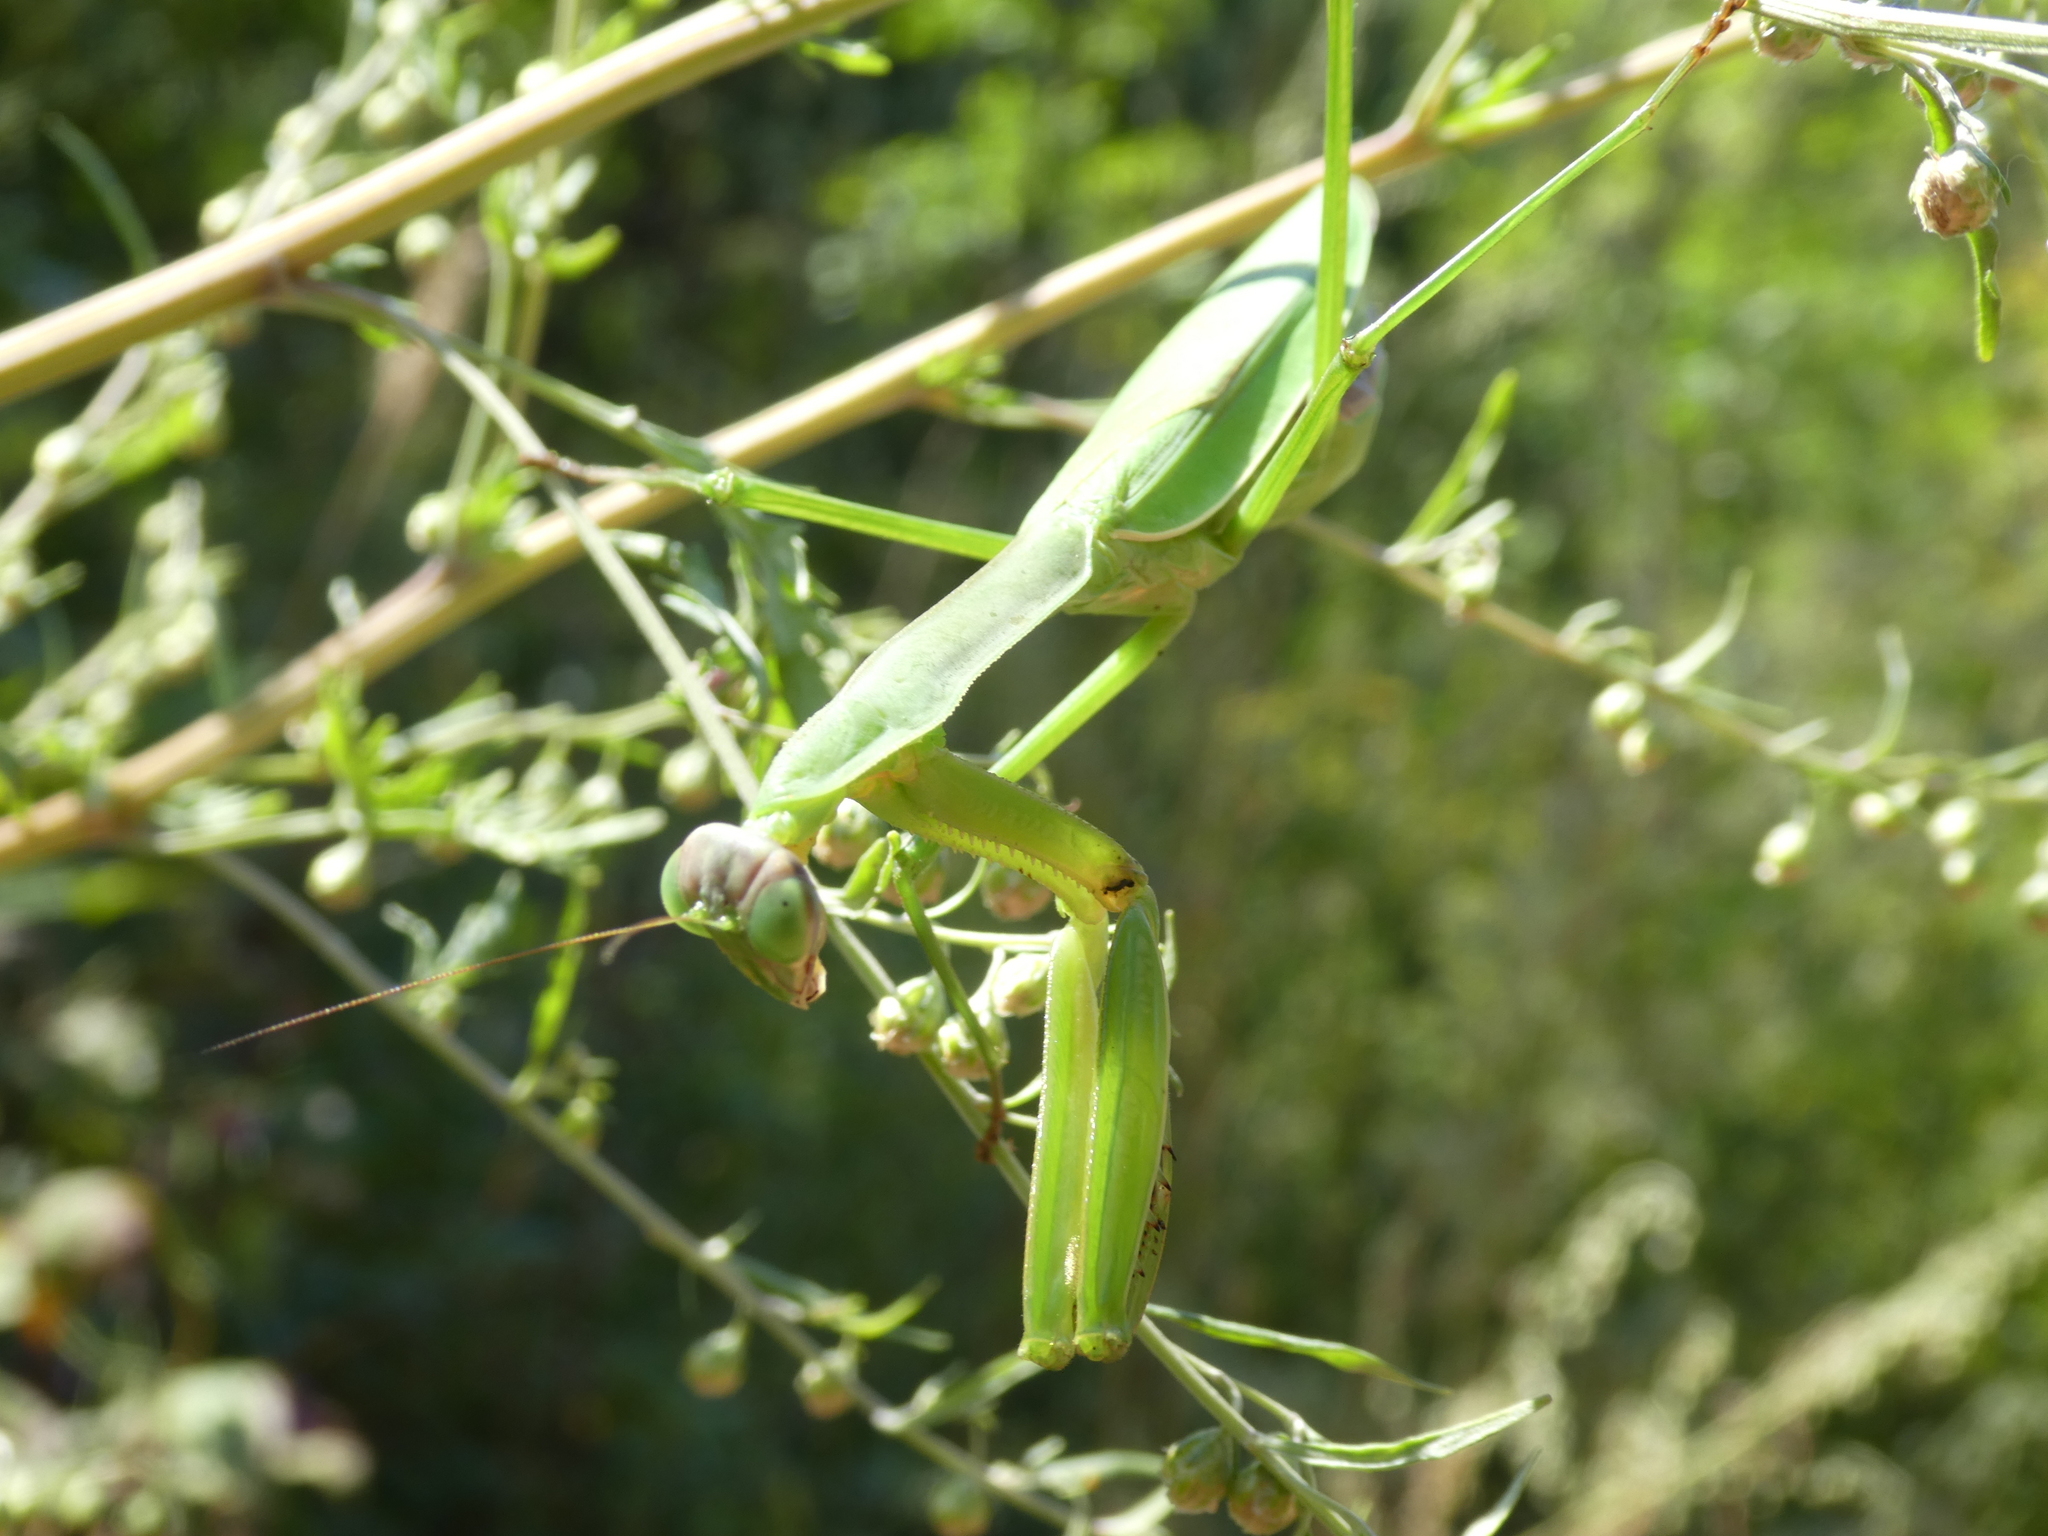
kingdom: Animalia
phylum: Arthropoda
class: Insecta
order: Mantodea
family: Mantidae
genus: Hierodula
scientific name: Hierodula patellifera
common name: Asian mantis
